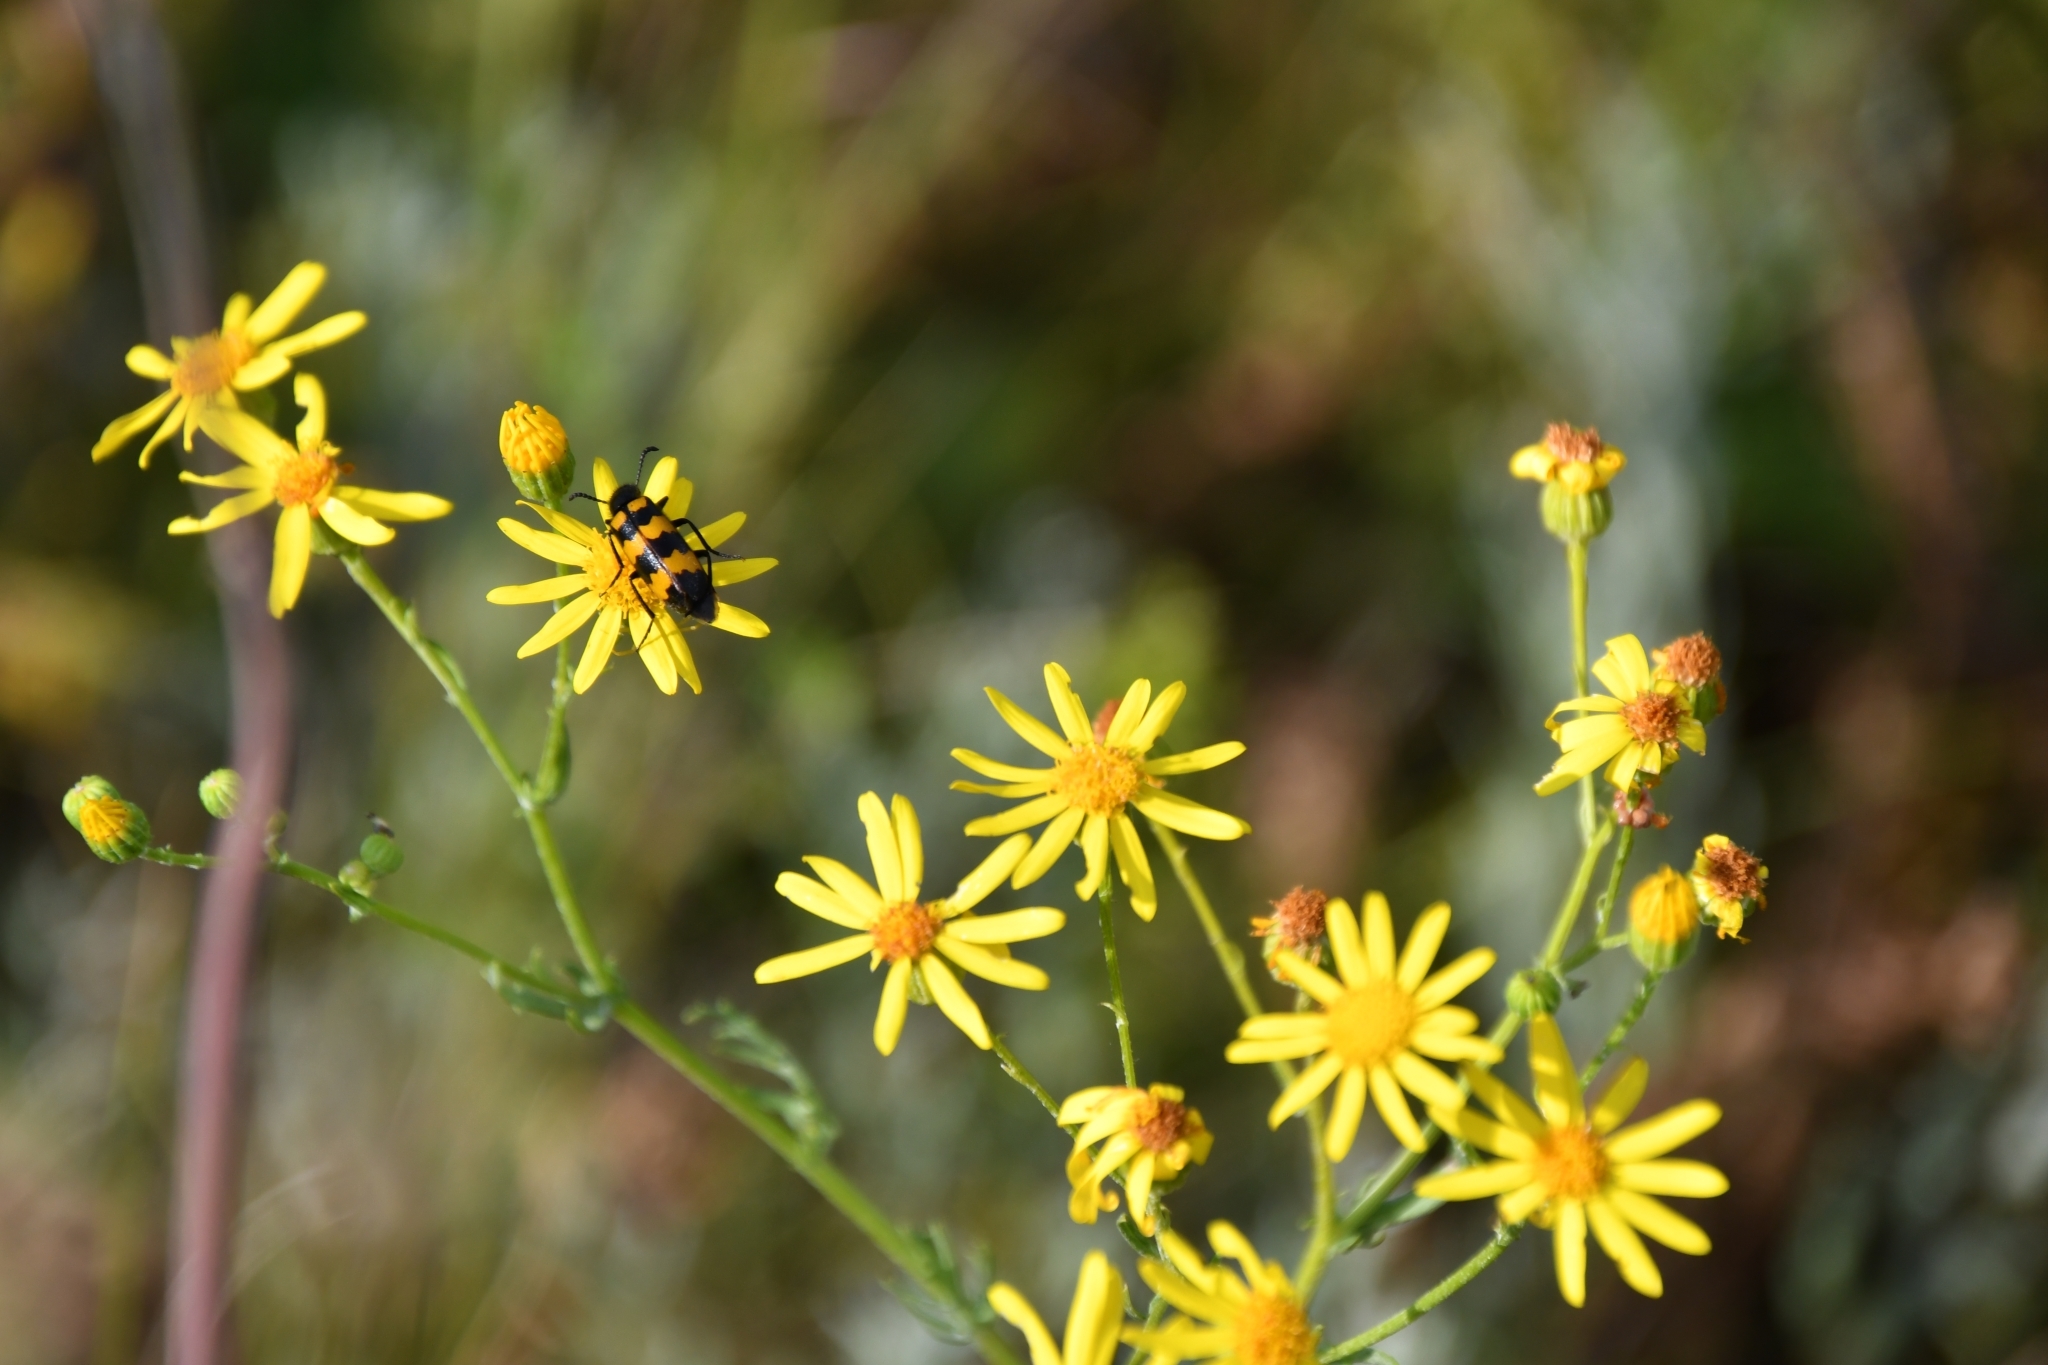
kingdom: Animalia
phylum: Arthropoda
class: Insecta
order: Coleoptera
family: Meloidae
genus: Mylabris
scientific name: Mylabris variabilis
